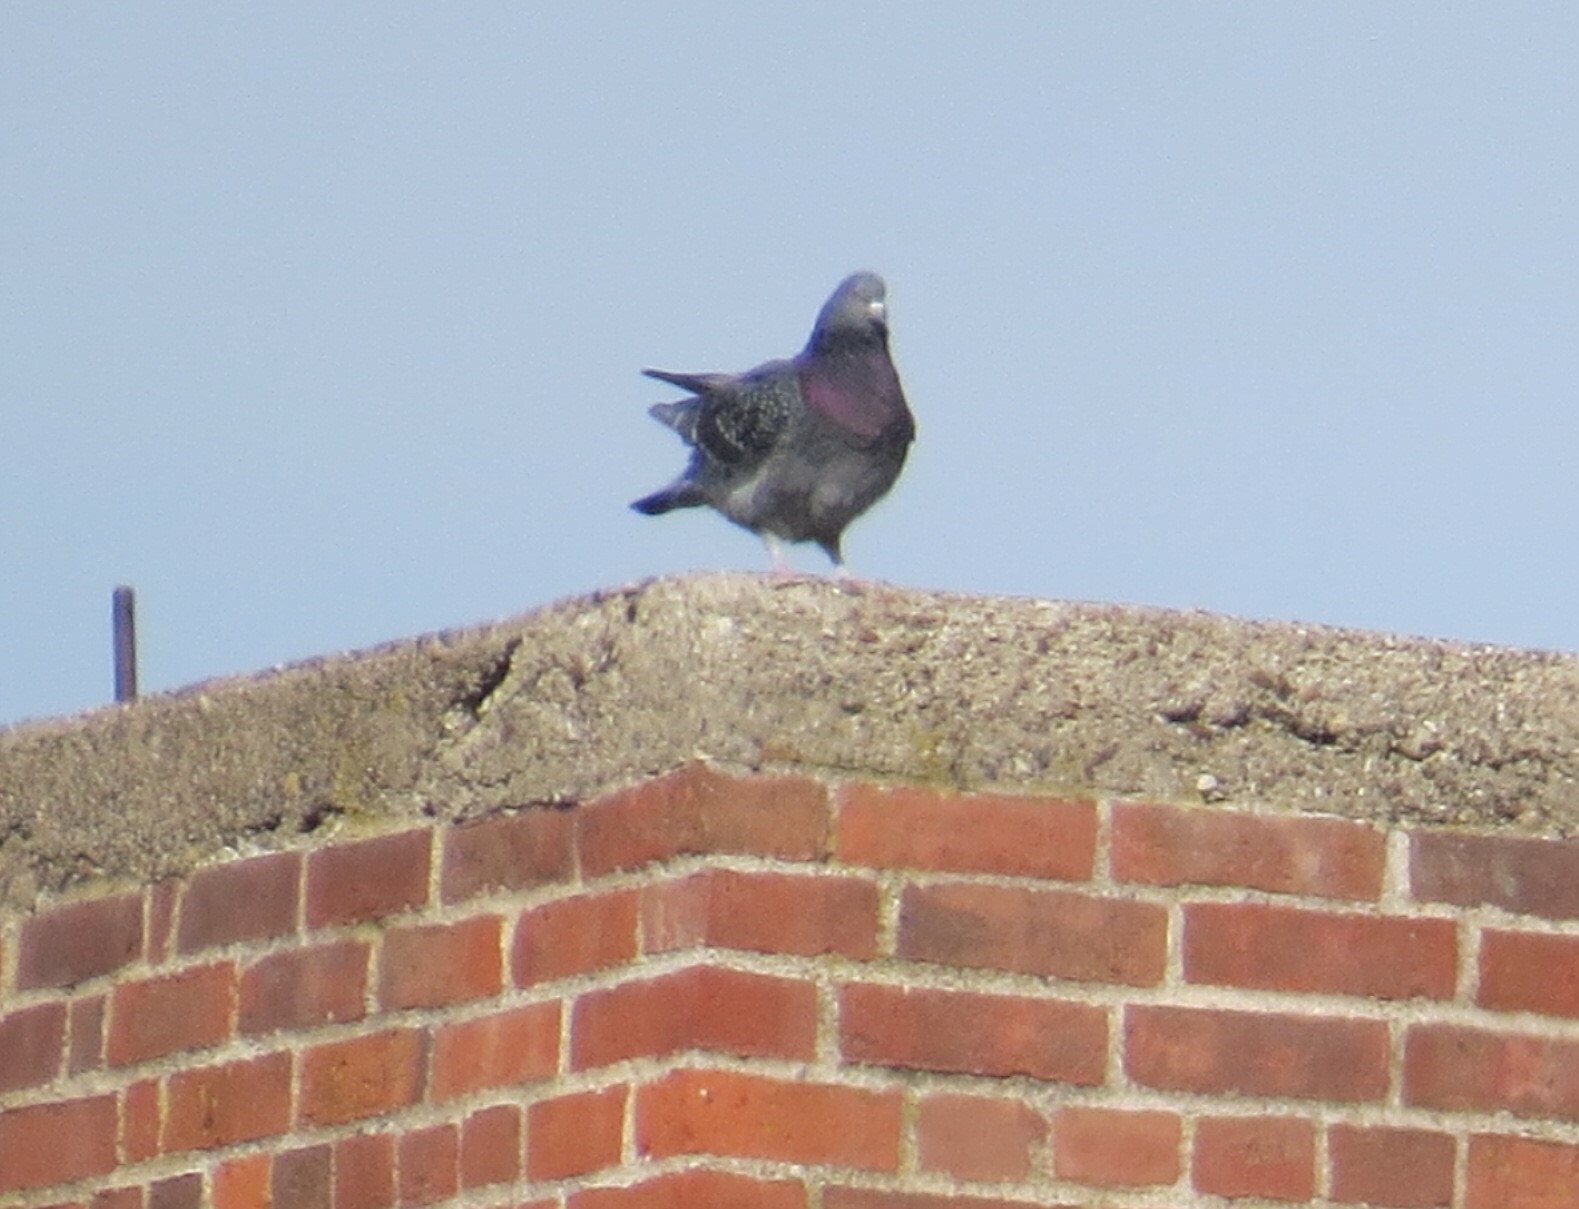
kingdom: Animalia
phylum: Chordata
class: Aves
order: Columbiformes
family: Columbidae
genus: Columba
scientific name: Columba livia
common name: Rock pigeon
